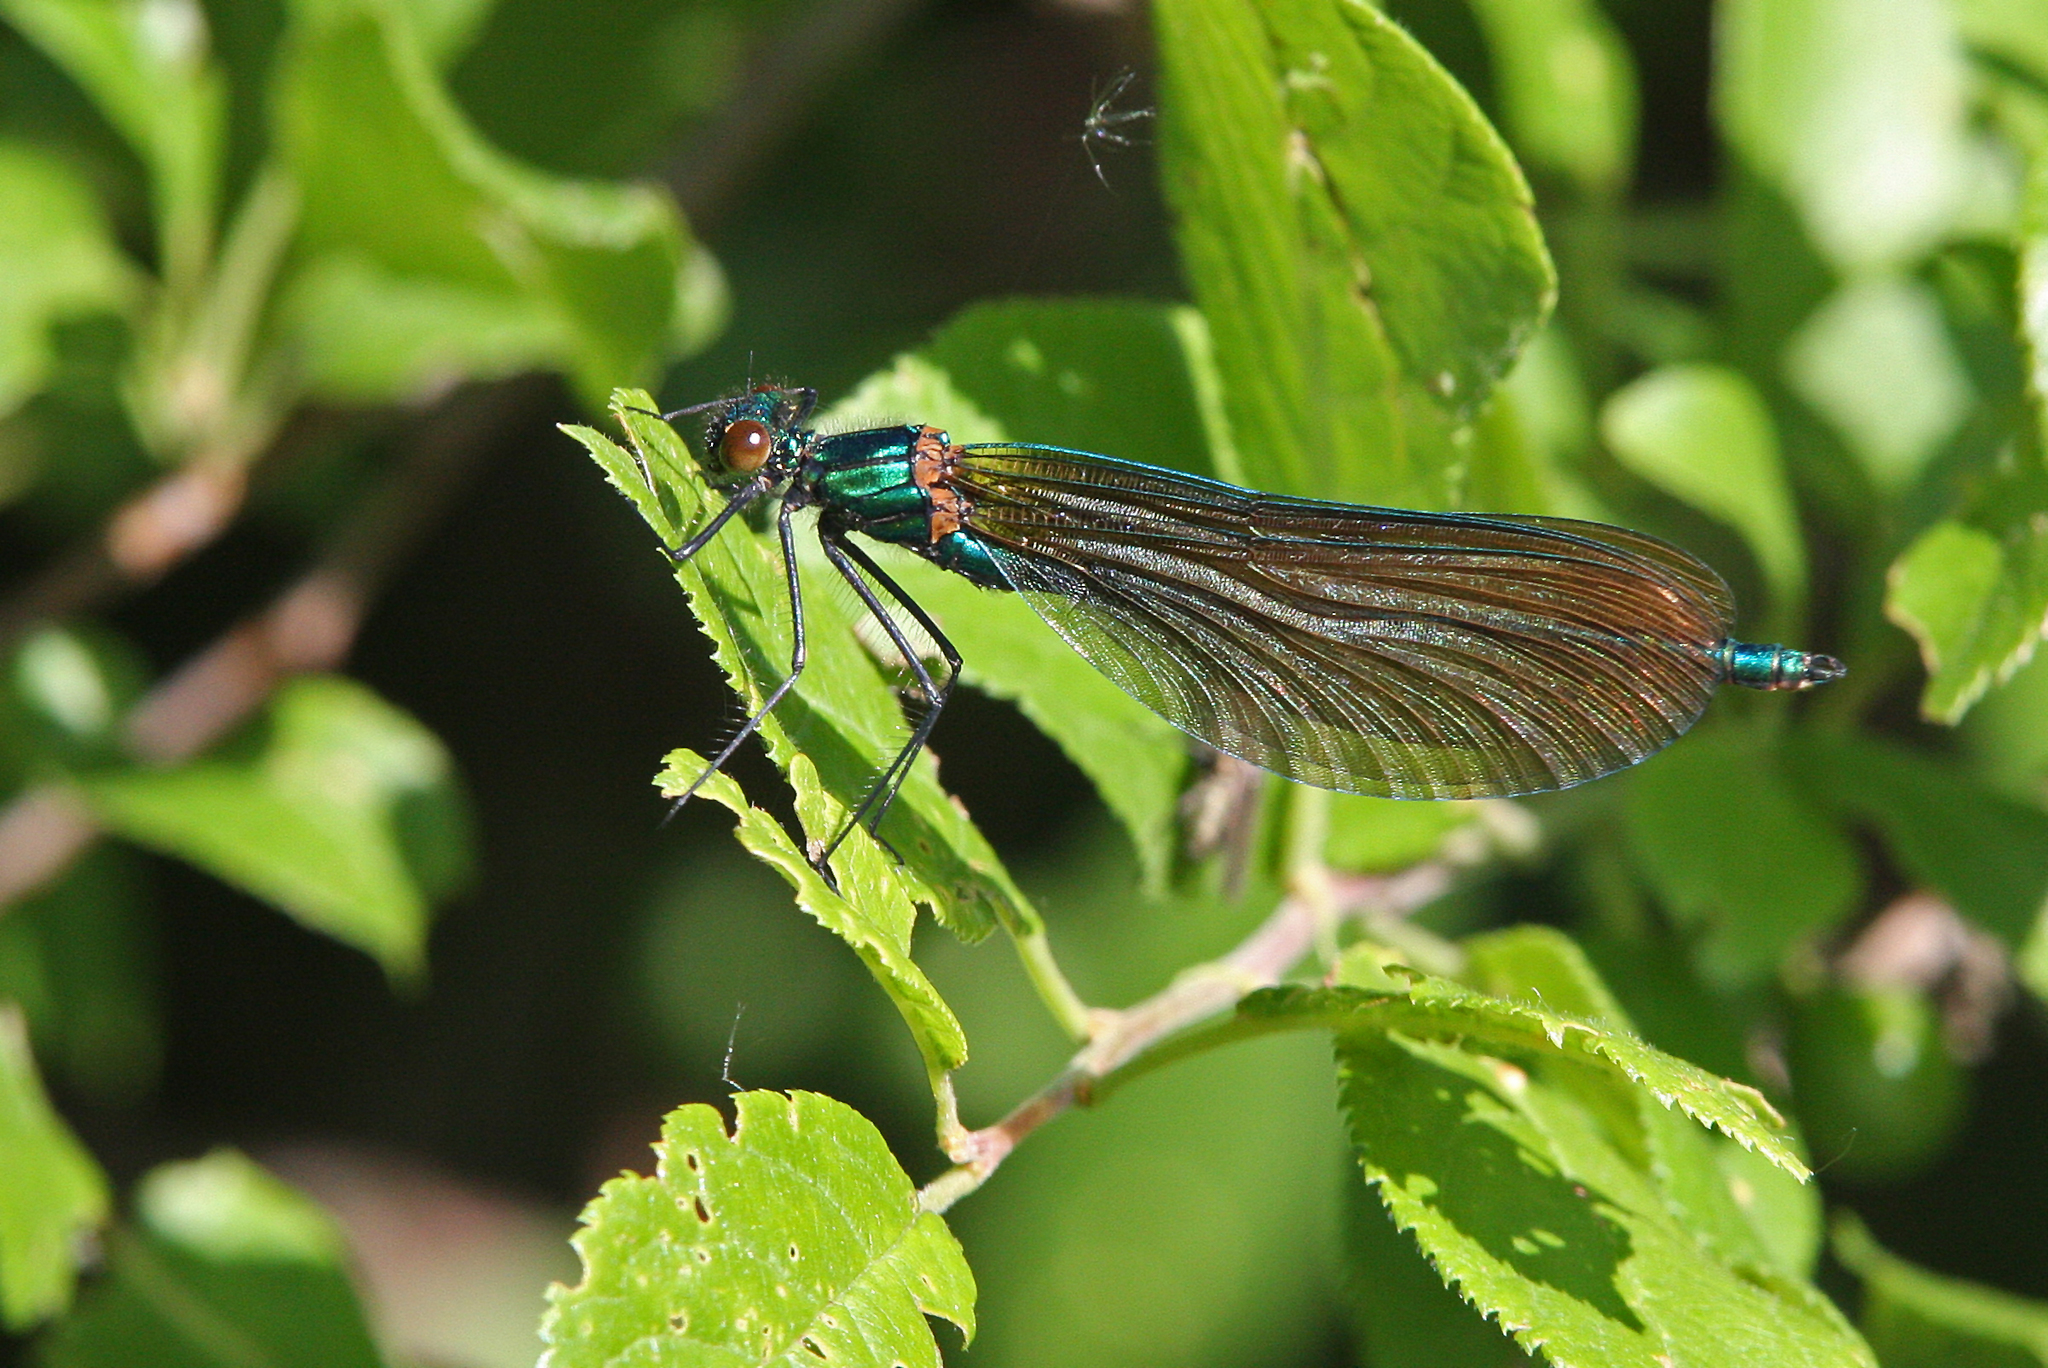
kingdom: Animalia
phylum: Arthropoda
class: Insecta
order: Odonata
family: Calopterygidae
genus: Calopteryx
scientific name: Calopteryx virgo
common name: Beautiful demoiselle
